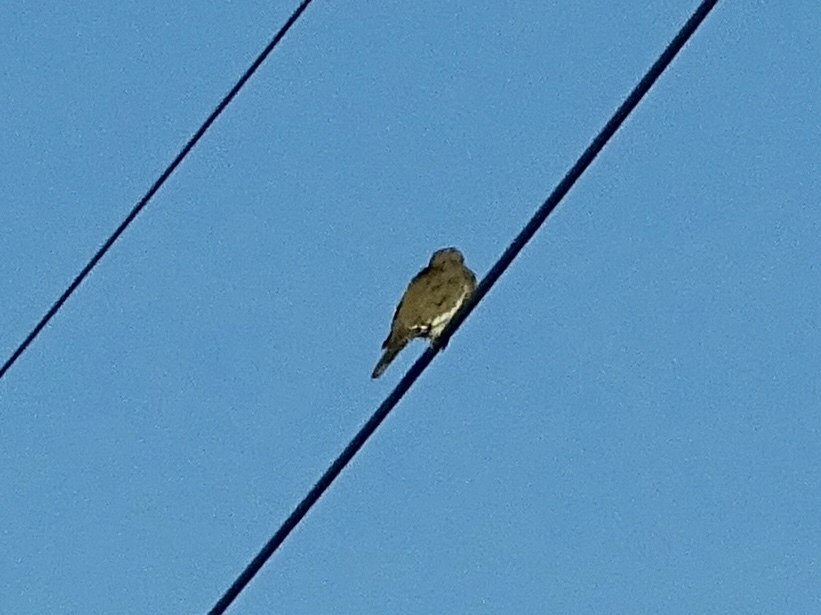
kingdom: Animalia
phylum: Chordata
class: Aves
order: Columbiformes
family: Columbidae
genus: Zenaida
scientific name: Zenaida asiatica
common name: White-winged dove
